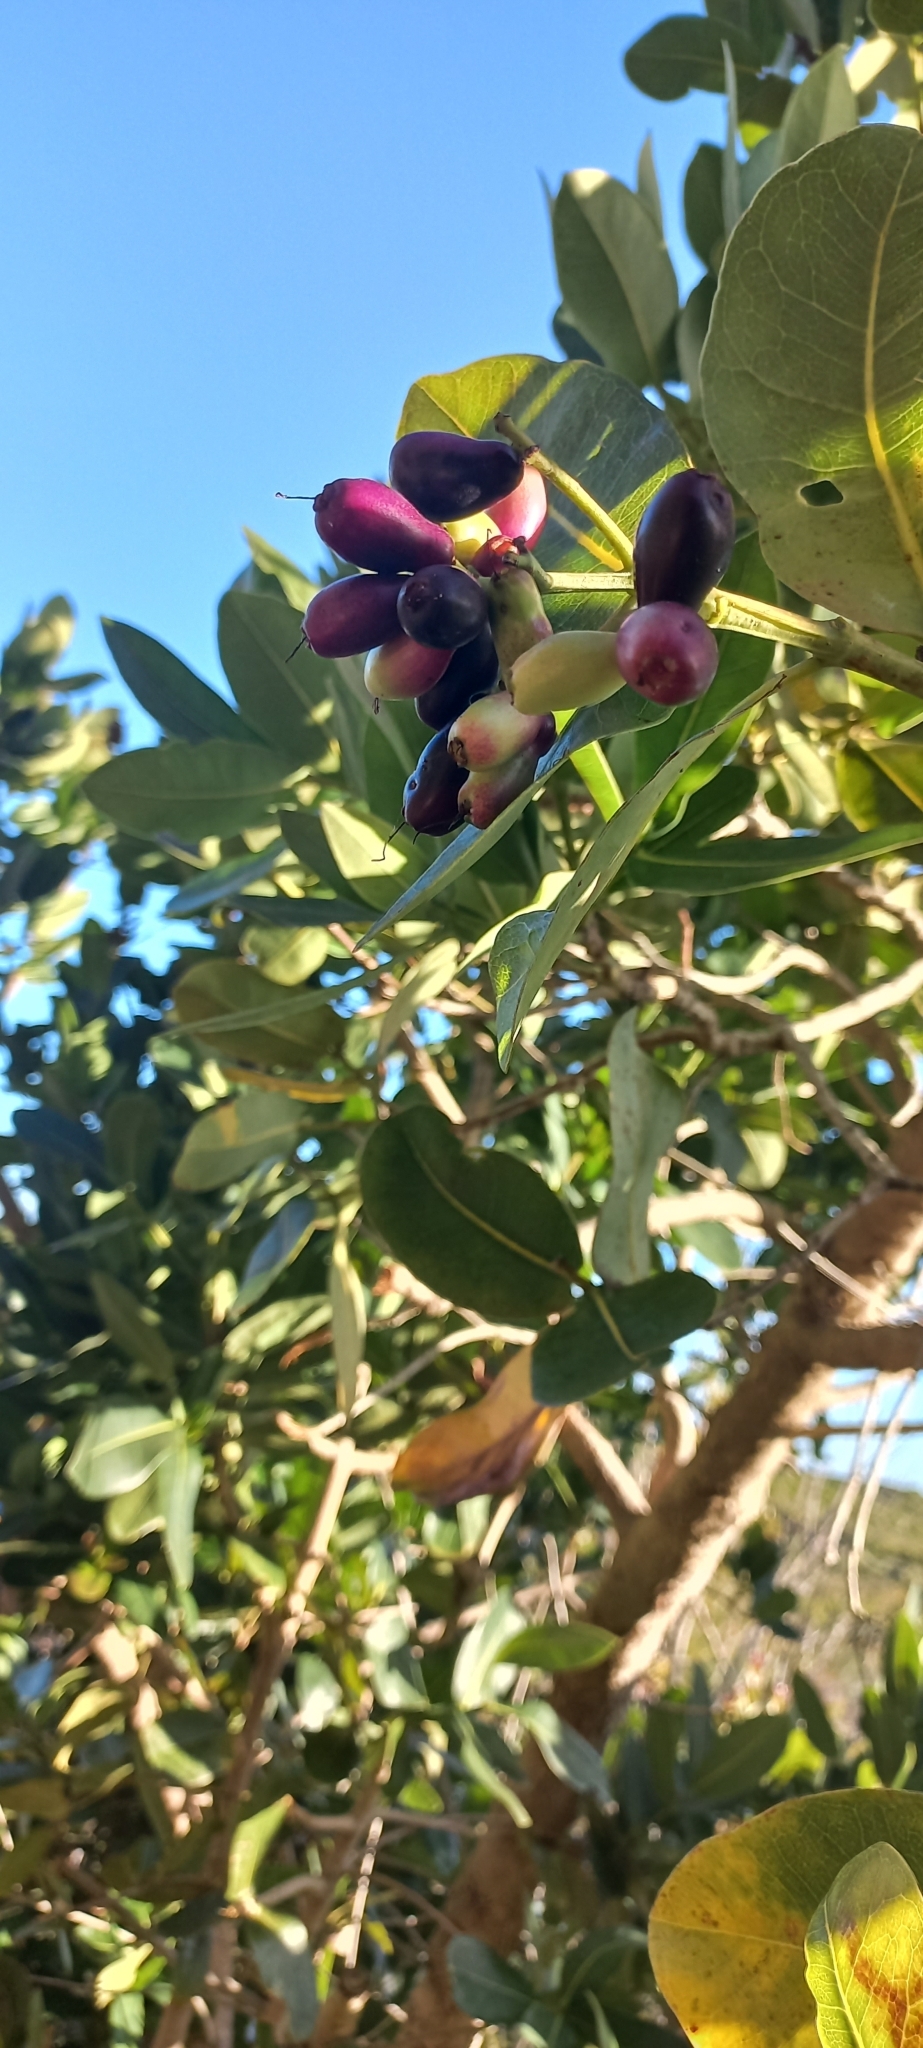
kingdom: Plantae
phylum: Tracheophyta
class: Magnoliopsida
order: Myrtales
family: Myrtaceae
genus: Syzygium
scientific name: Syzygium cordatum
